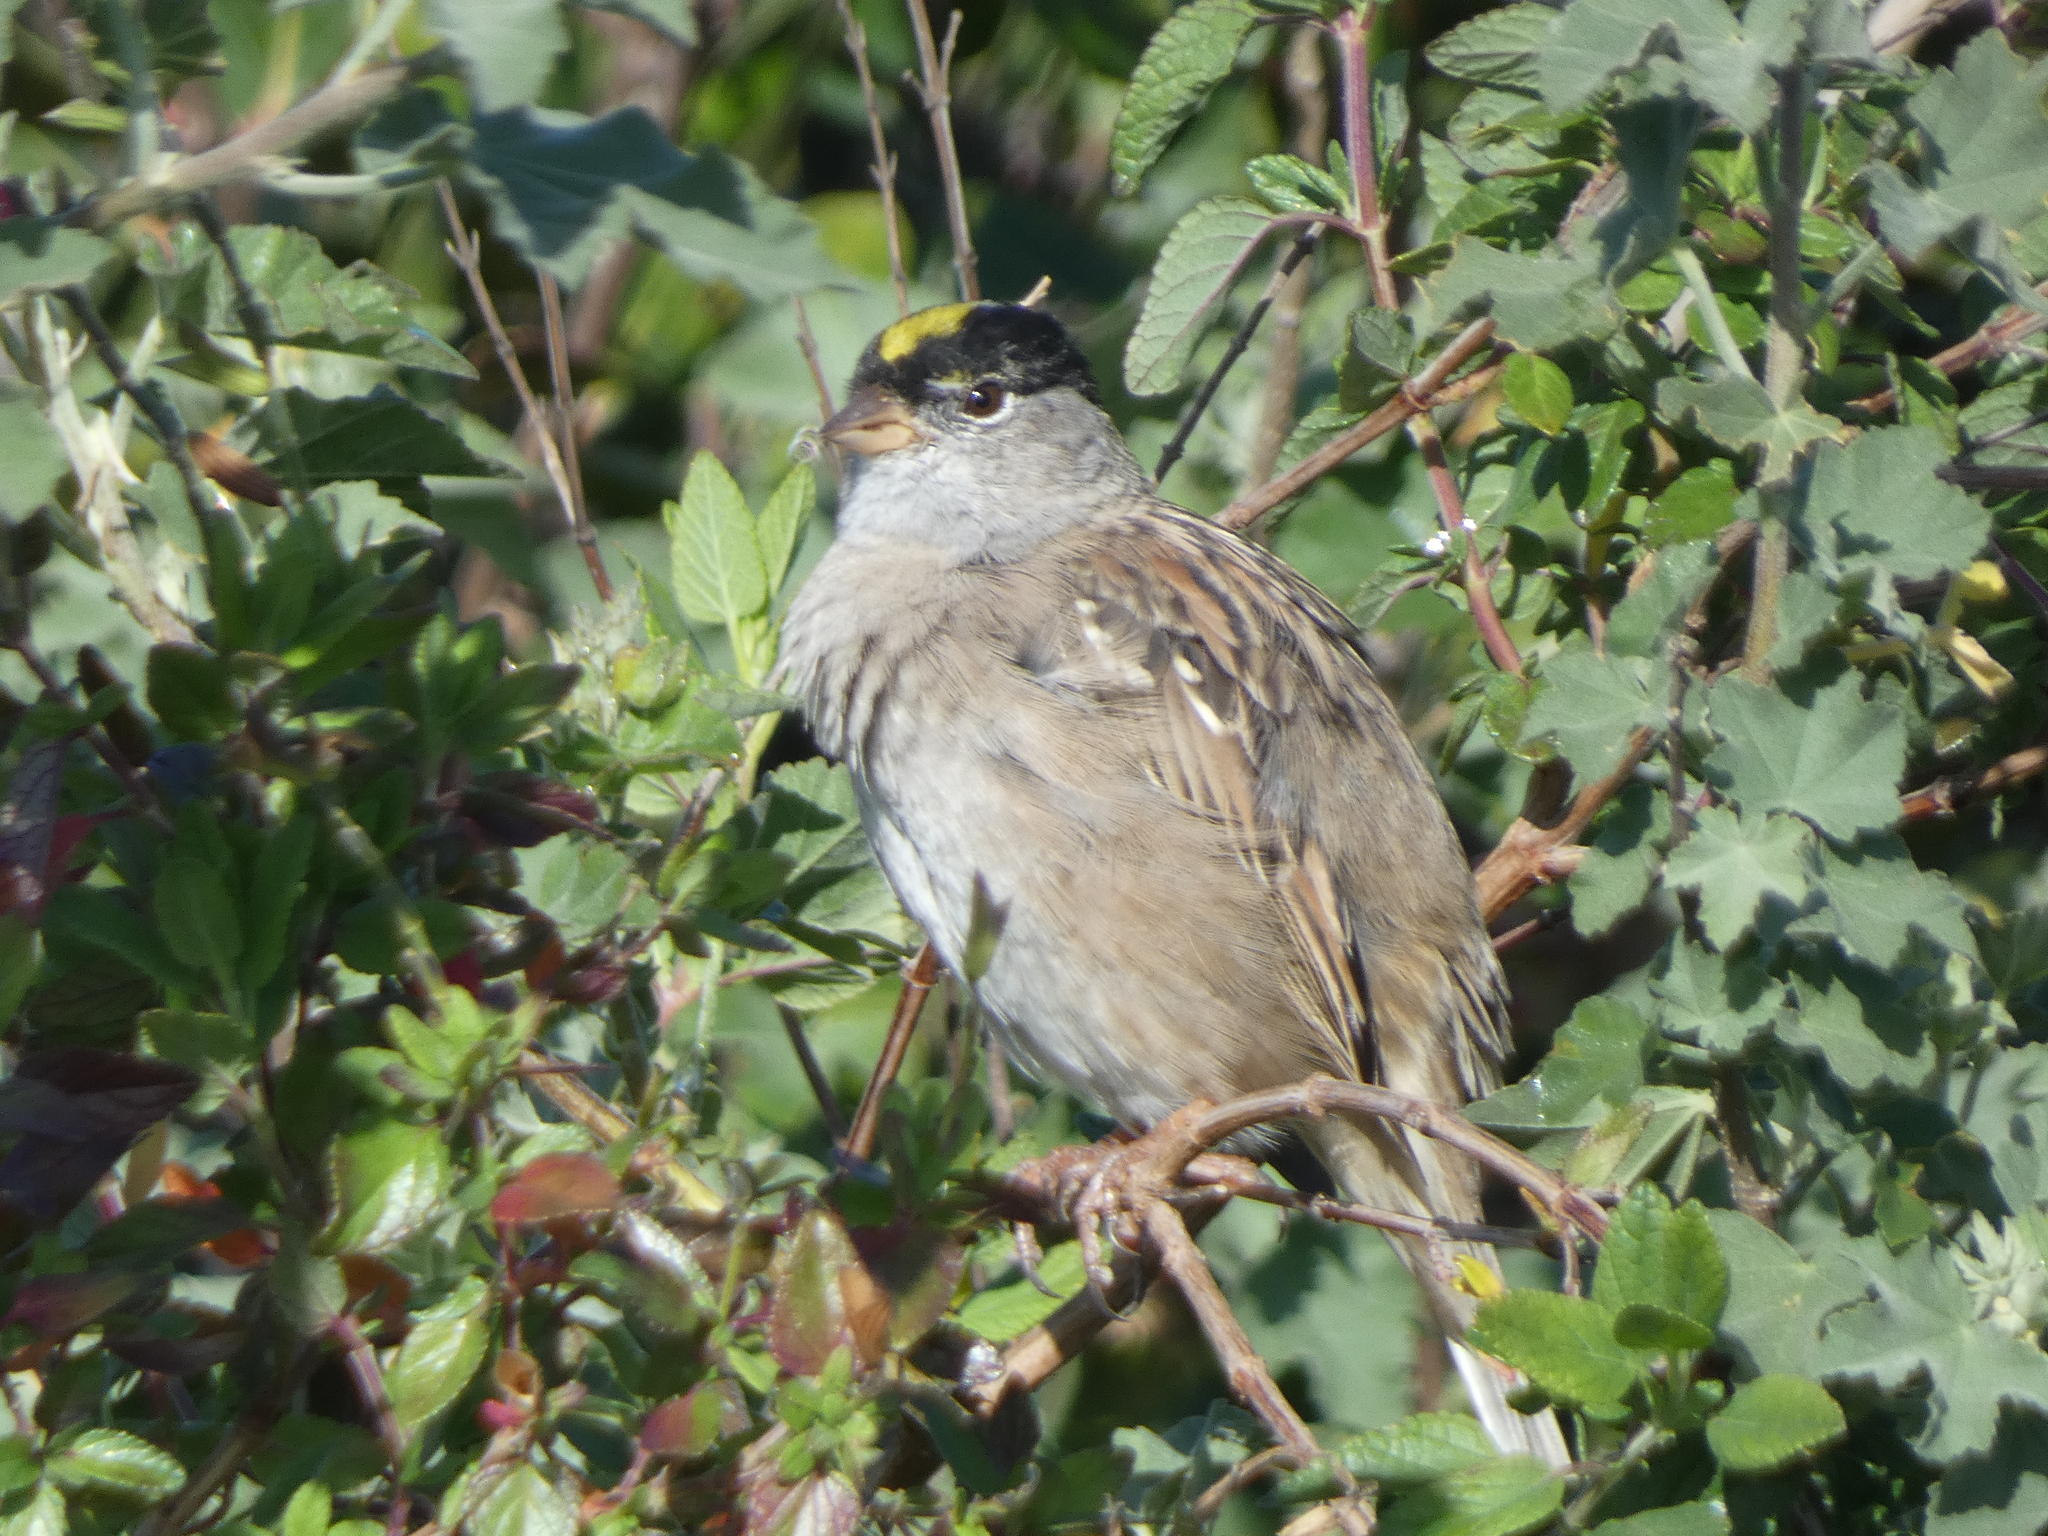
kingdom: Animalia
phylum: Chordata
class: Aves
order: Passeriformes
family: Passerellidae
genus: Zonotrichia
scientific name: Zonotrichia atricapilla
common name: Golden-crowned sparrow
